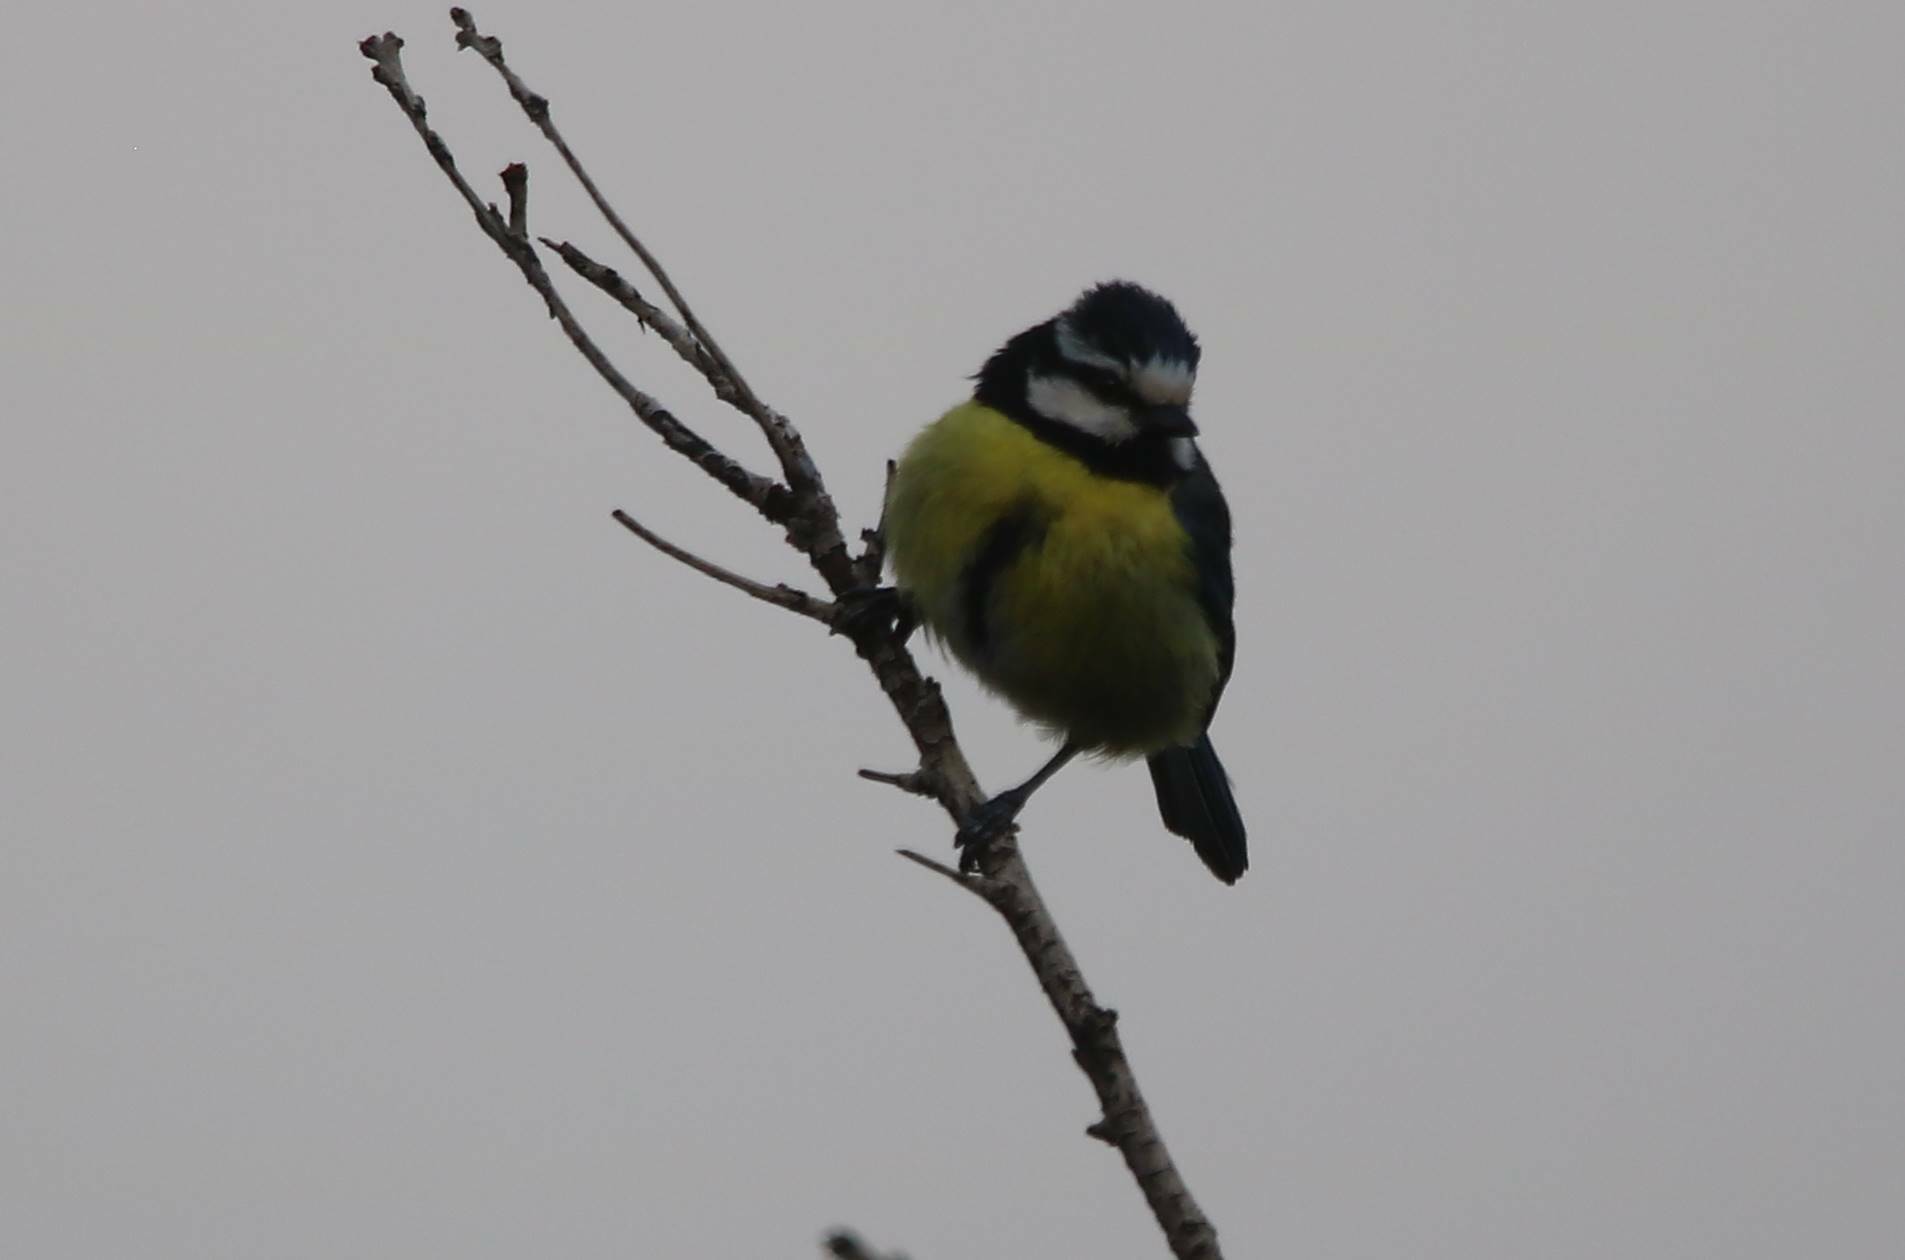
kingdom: Animalia
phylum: Chordata
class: Aves
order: Passeriformes
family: Paridae
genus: Cyanistes
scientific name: Cyanistes teneriffae
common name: African blue tit
